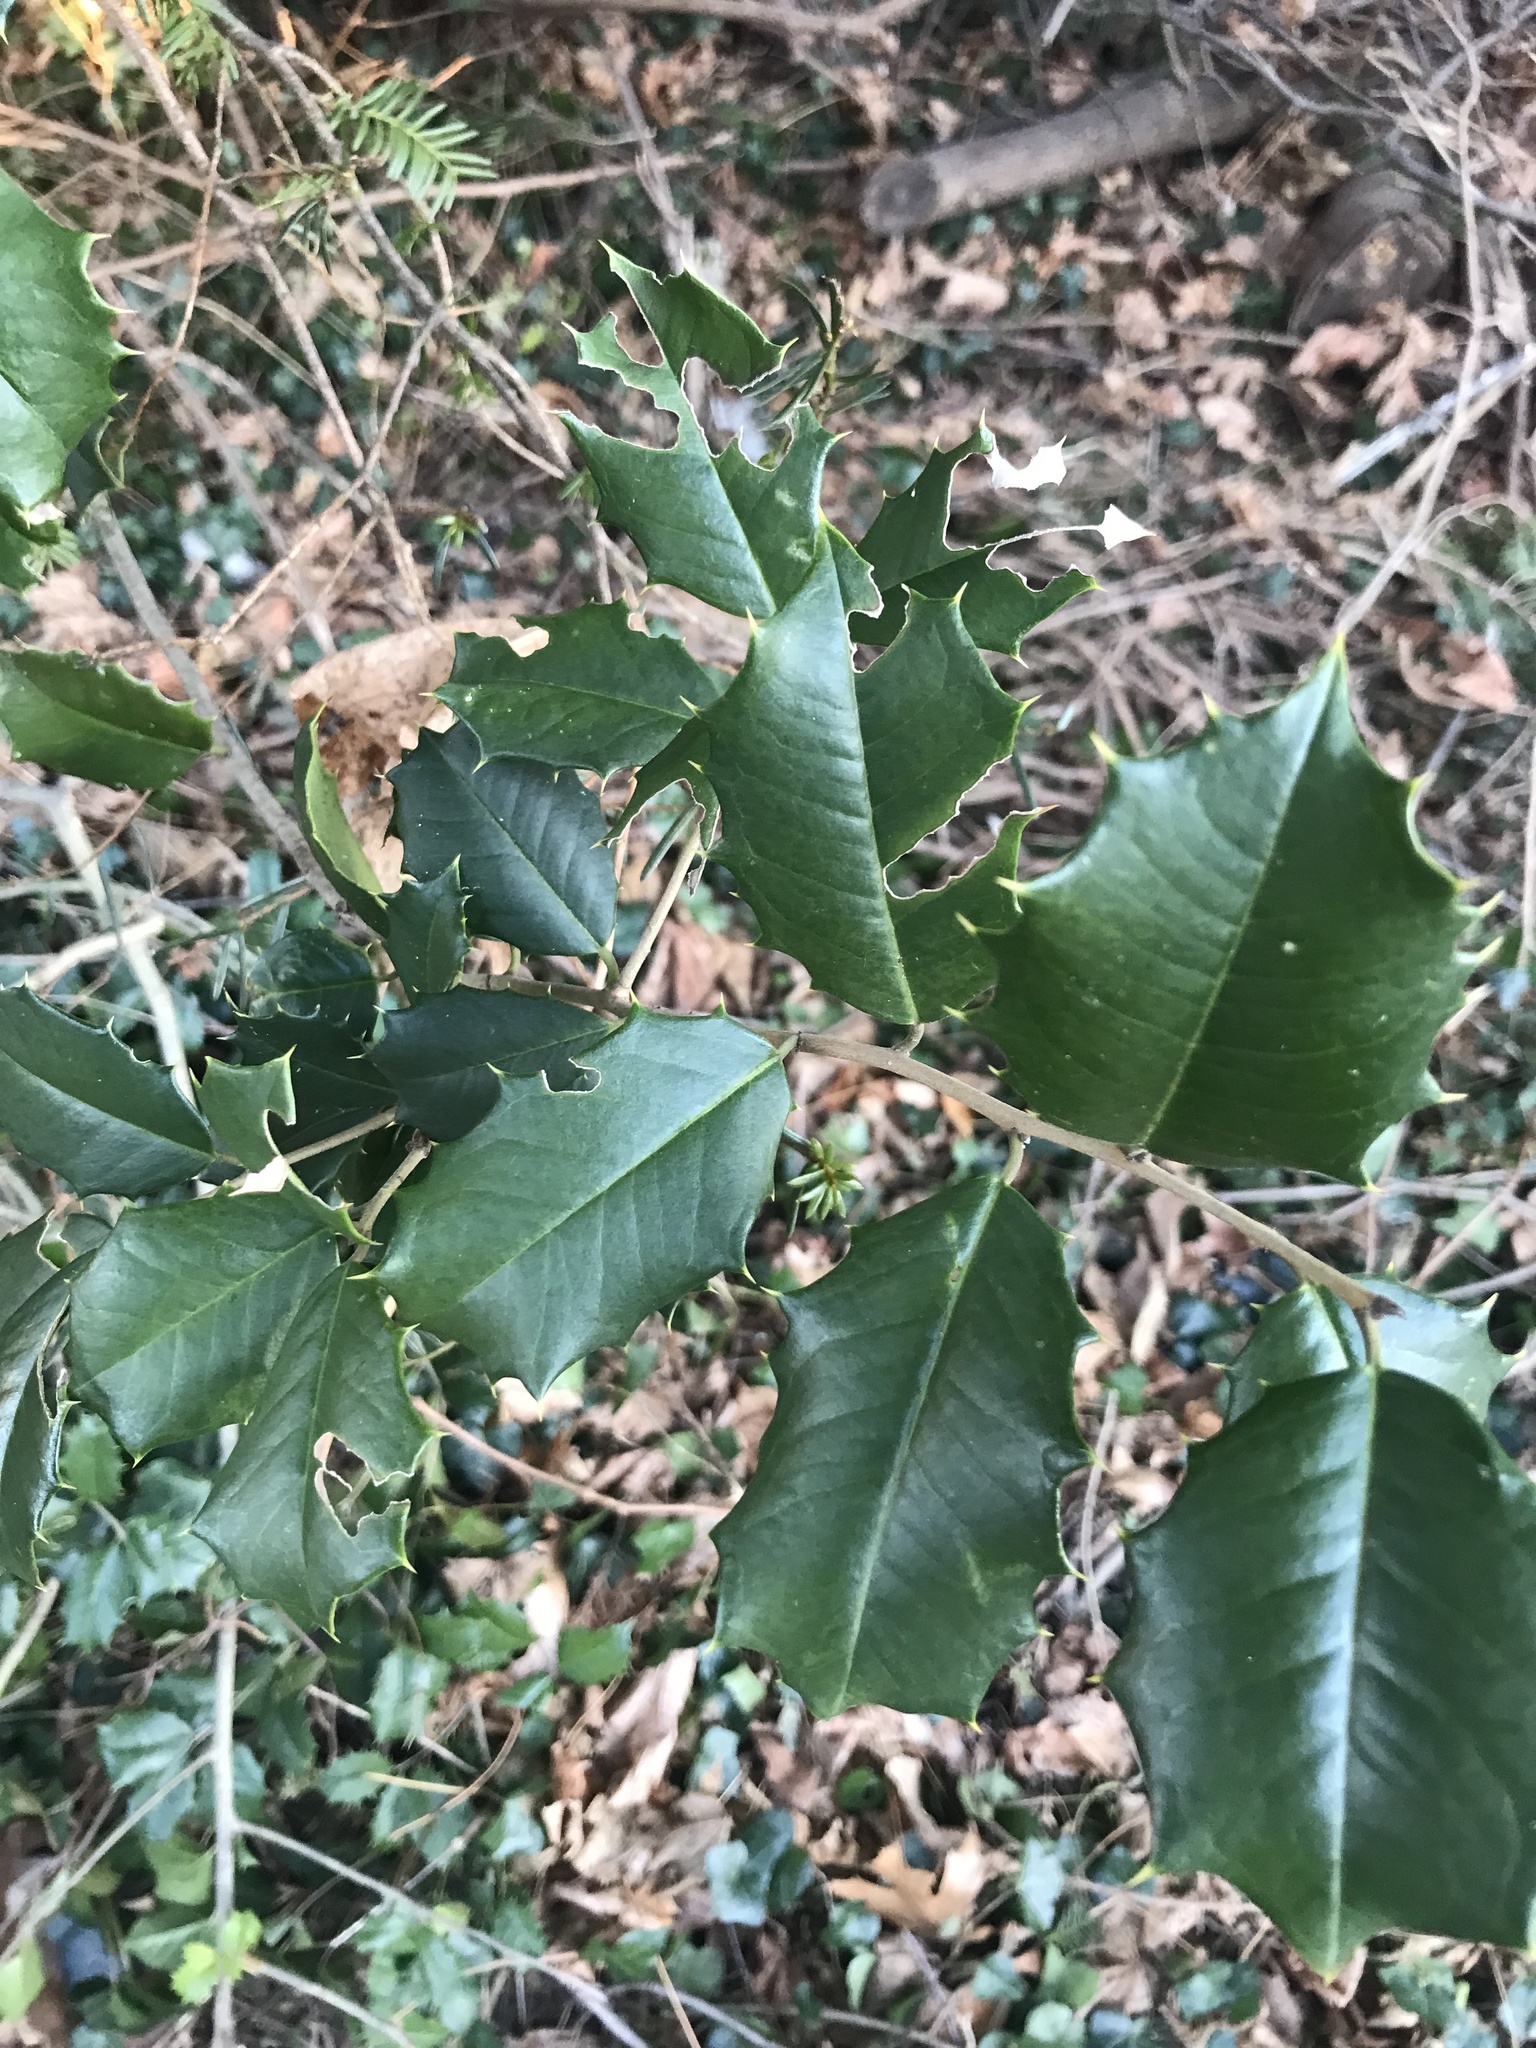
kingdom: Plantae
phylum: Tracheophyta
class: Magnoliopsida
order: Aquifoliales
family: Aquifoliaceae
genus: Ilex
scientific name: Ilex opaca
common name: American holly
